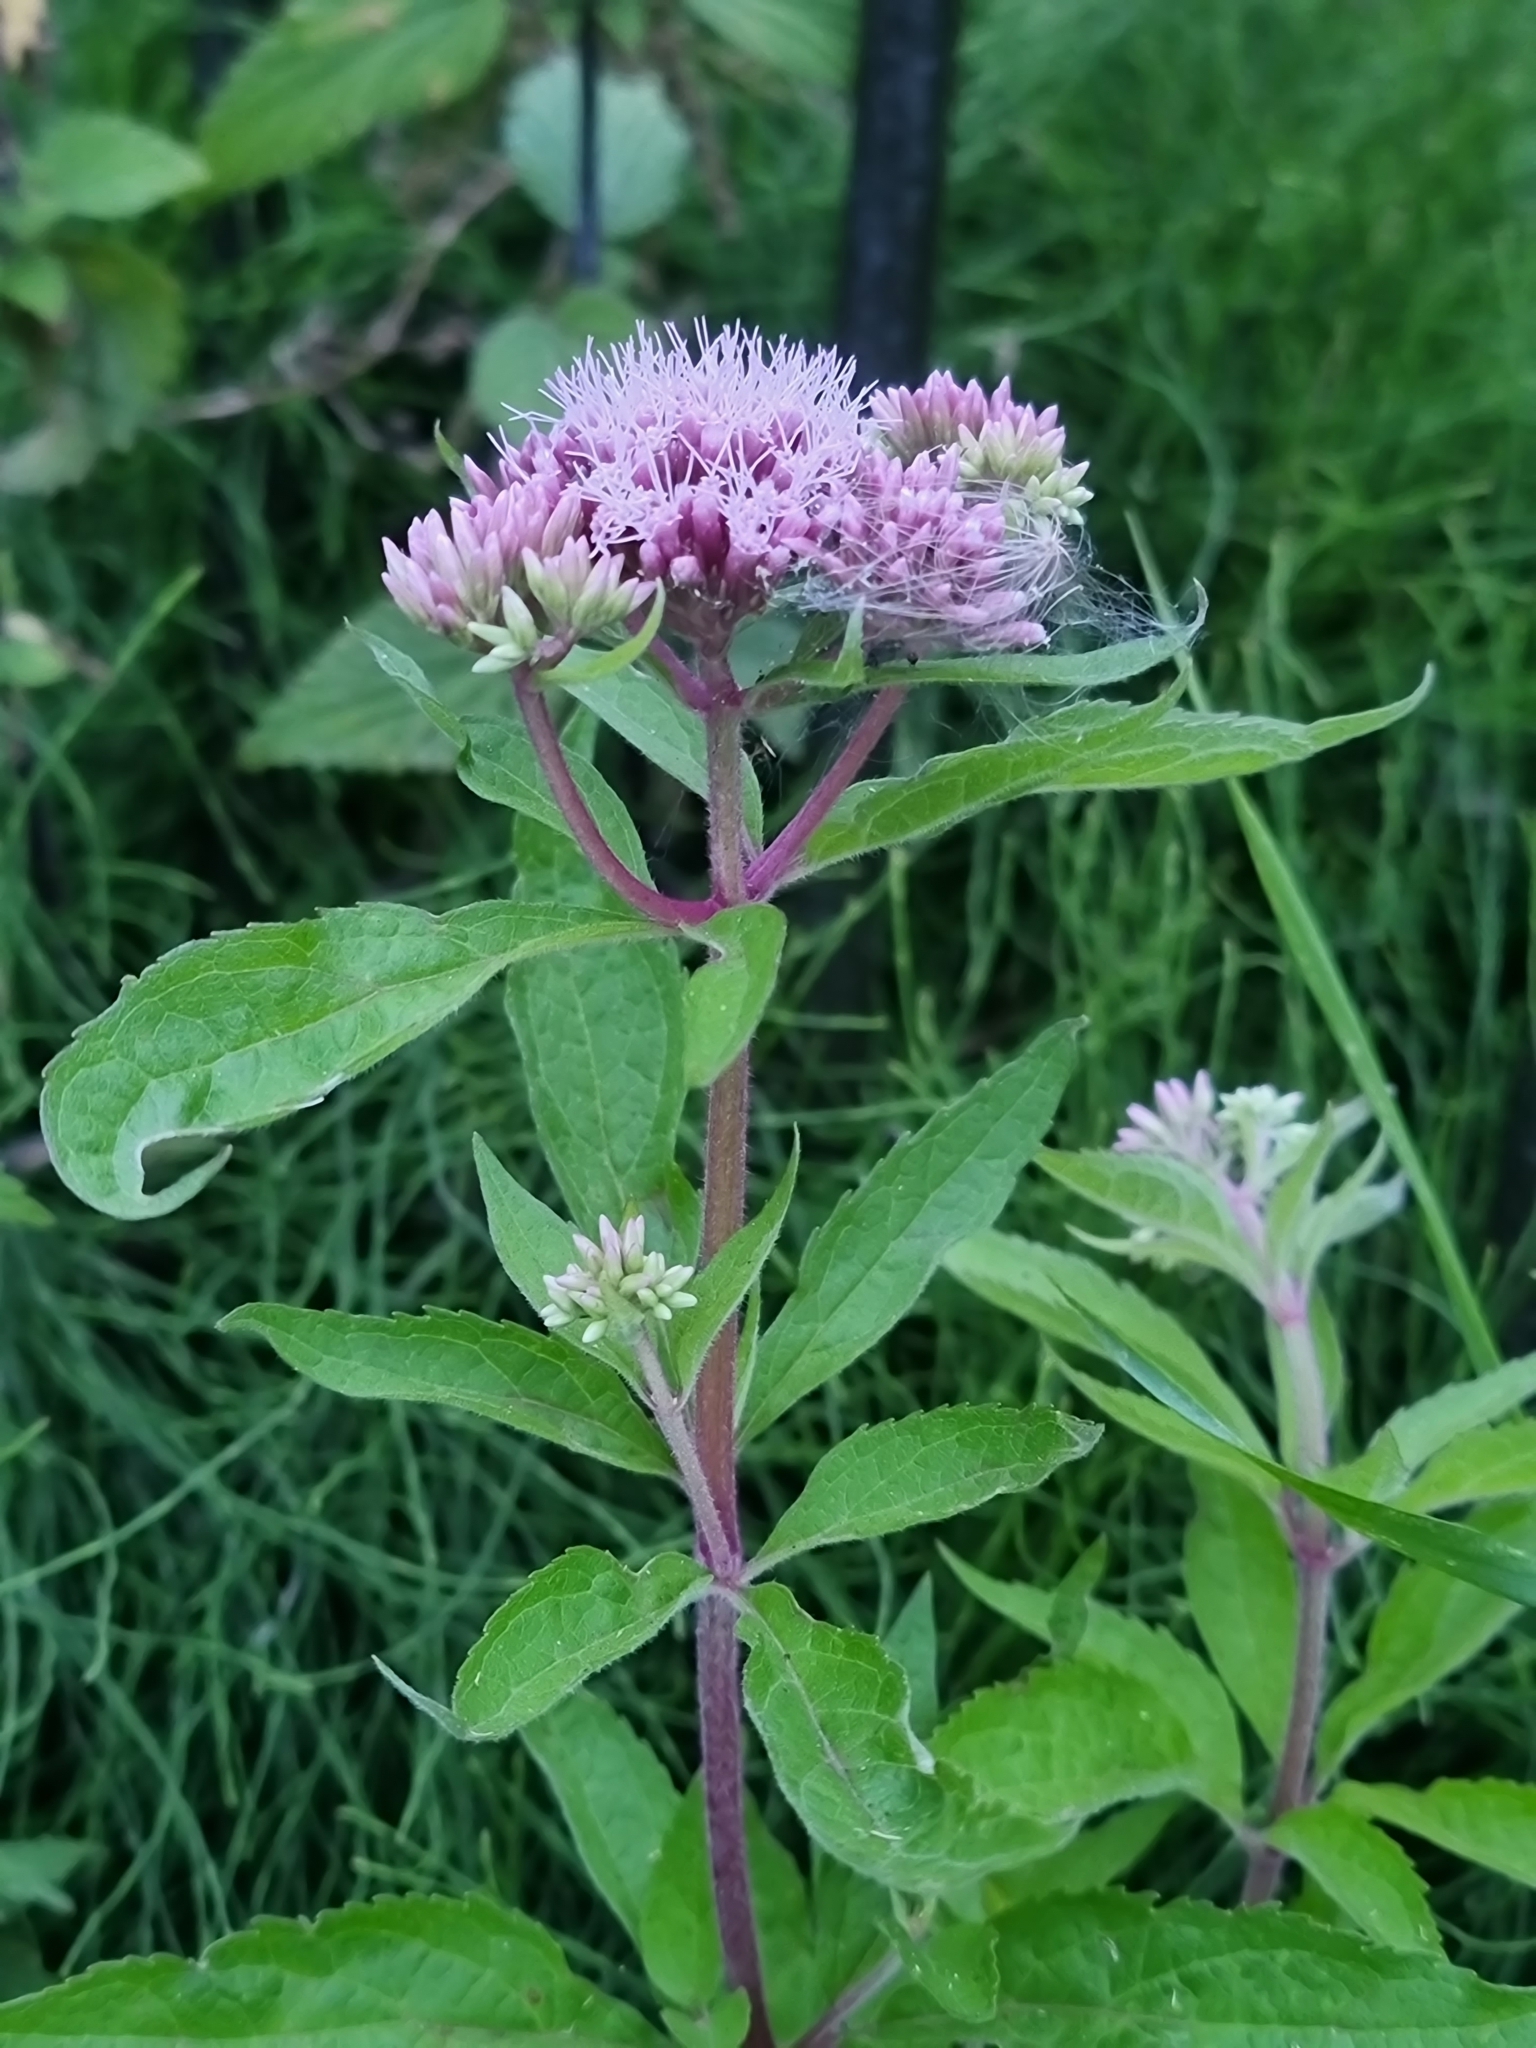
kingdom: Plantae
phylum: Tracheophyta
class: Magnoliopsida
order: Asterales
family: Asteraceae
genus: Eupatorium
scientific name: Eupatorium cannabinum
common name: Hemp-agrimony
